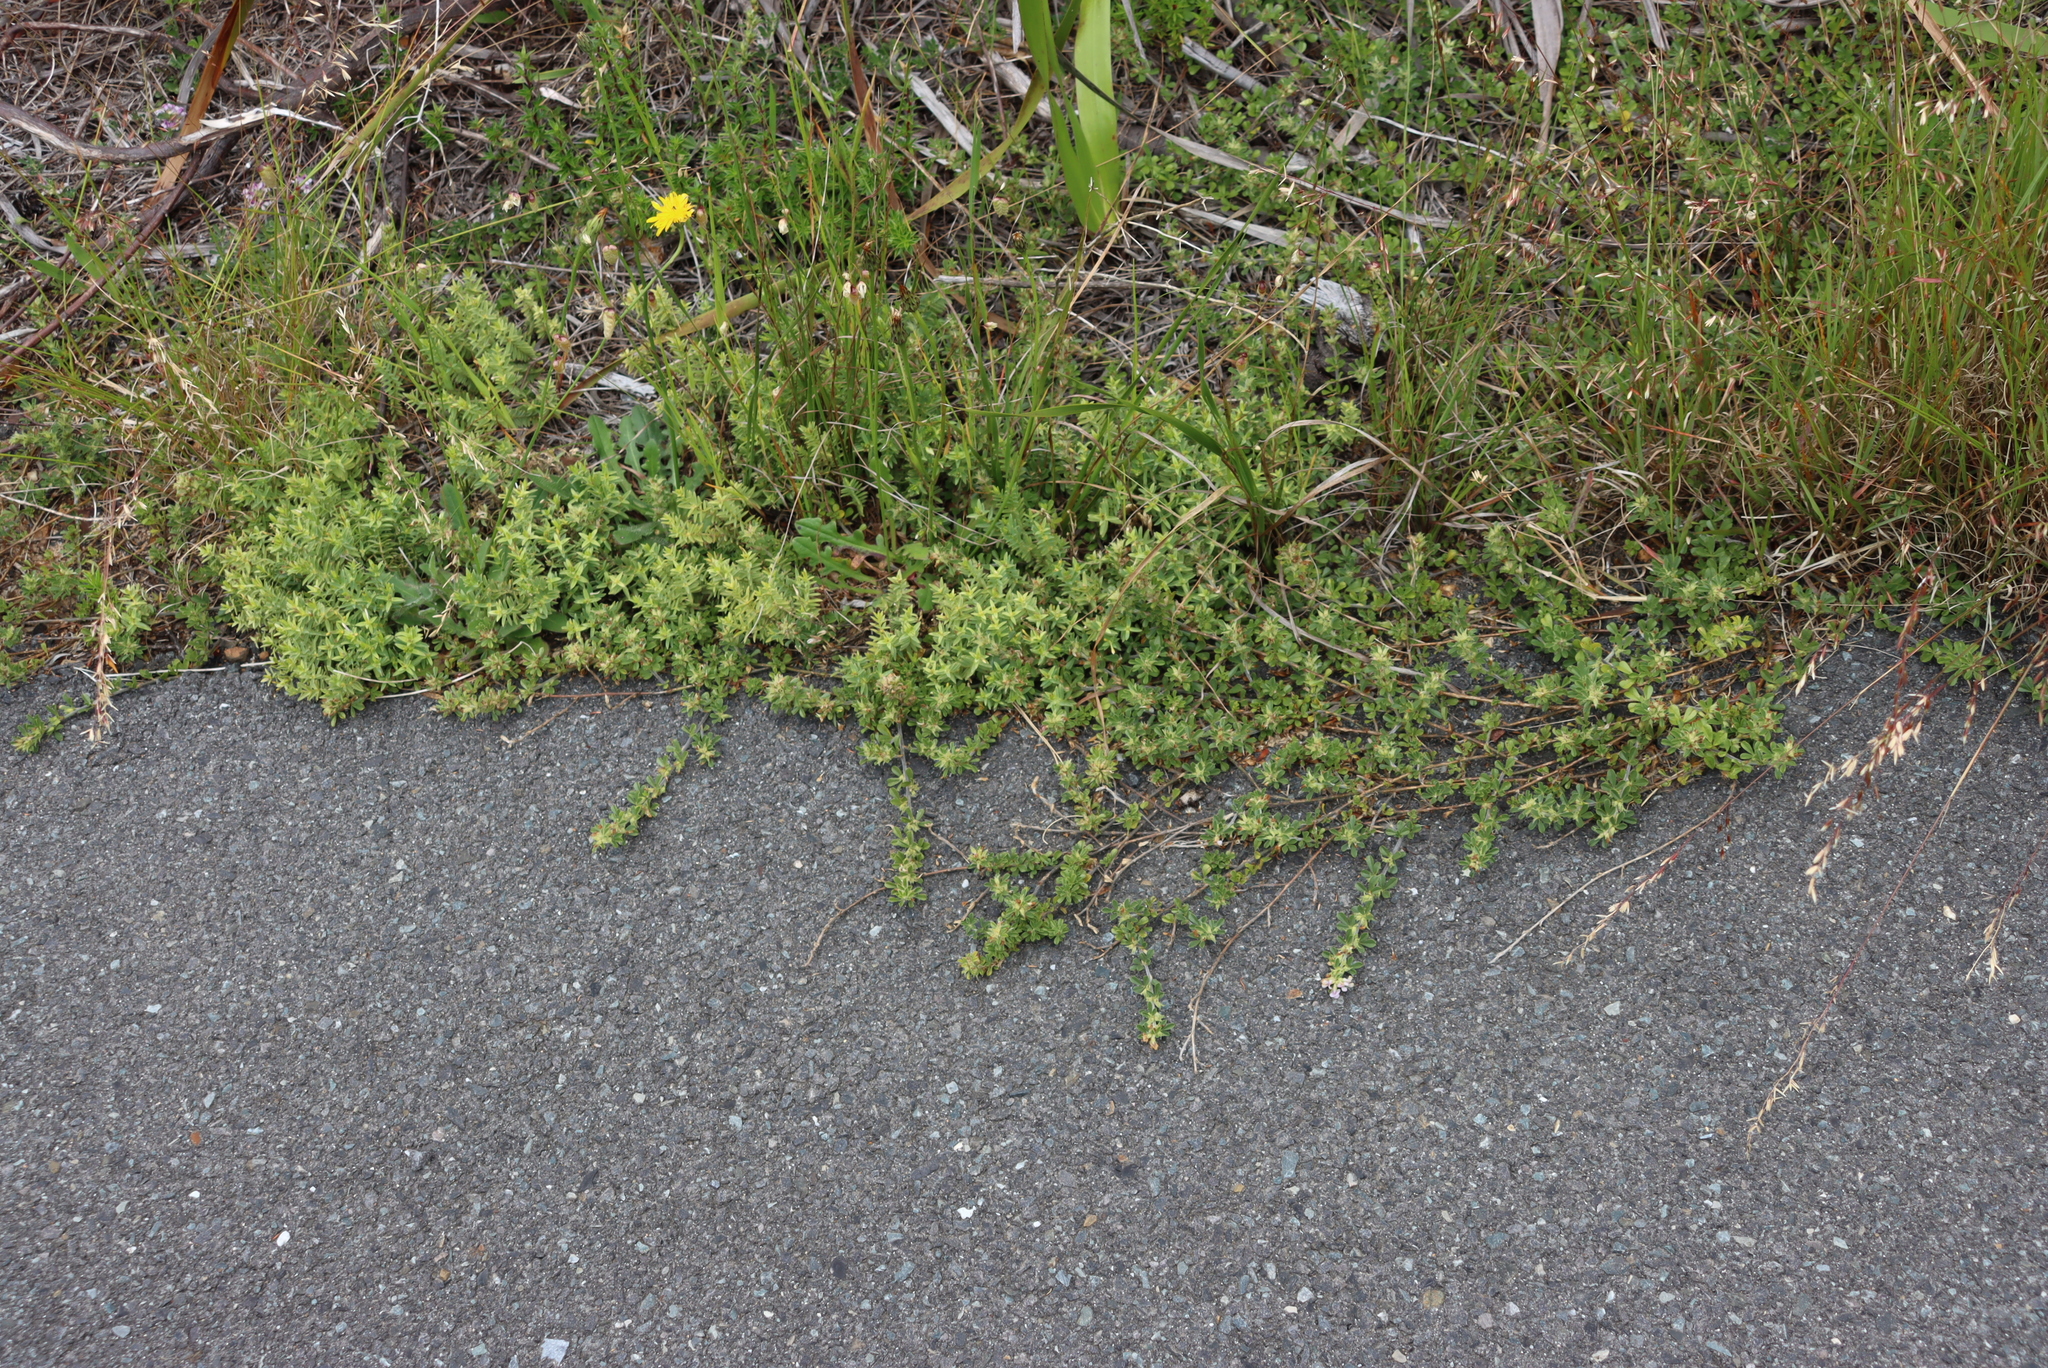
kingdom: Plantae
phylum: Tracheophyta
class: Magnoliopsida
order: Fabales
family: Fabaceae
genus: Psoralea
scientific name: Psoralea
